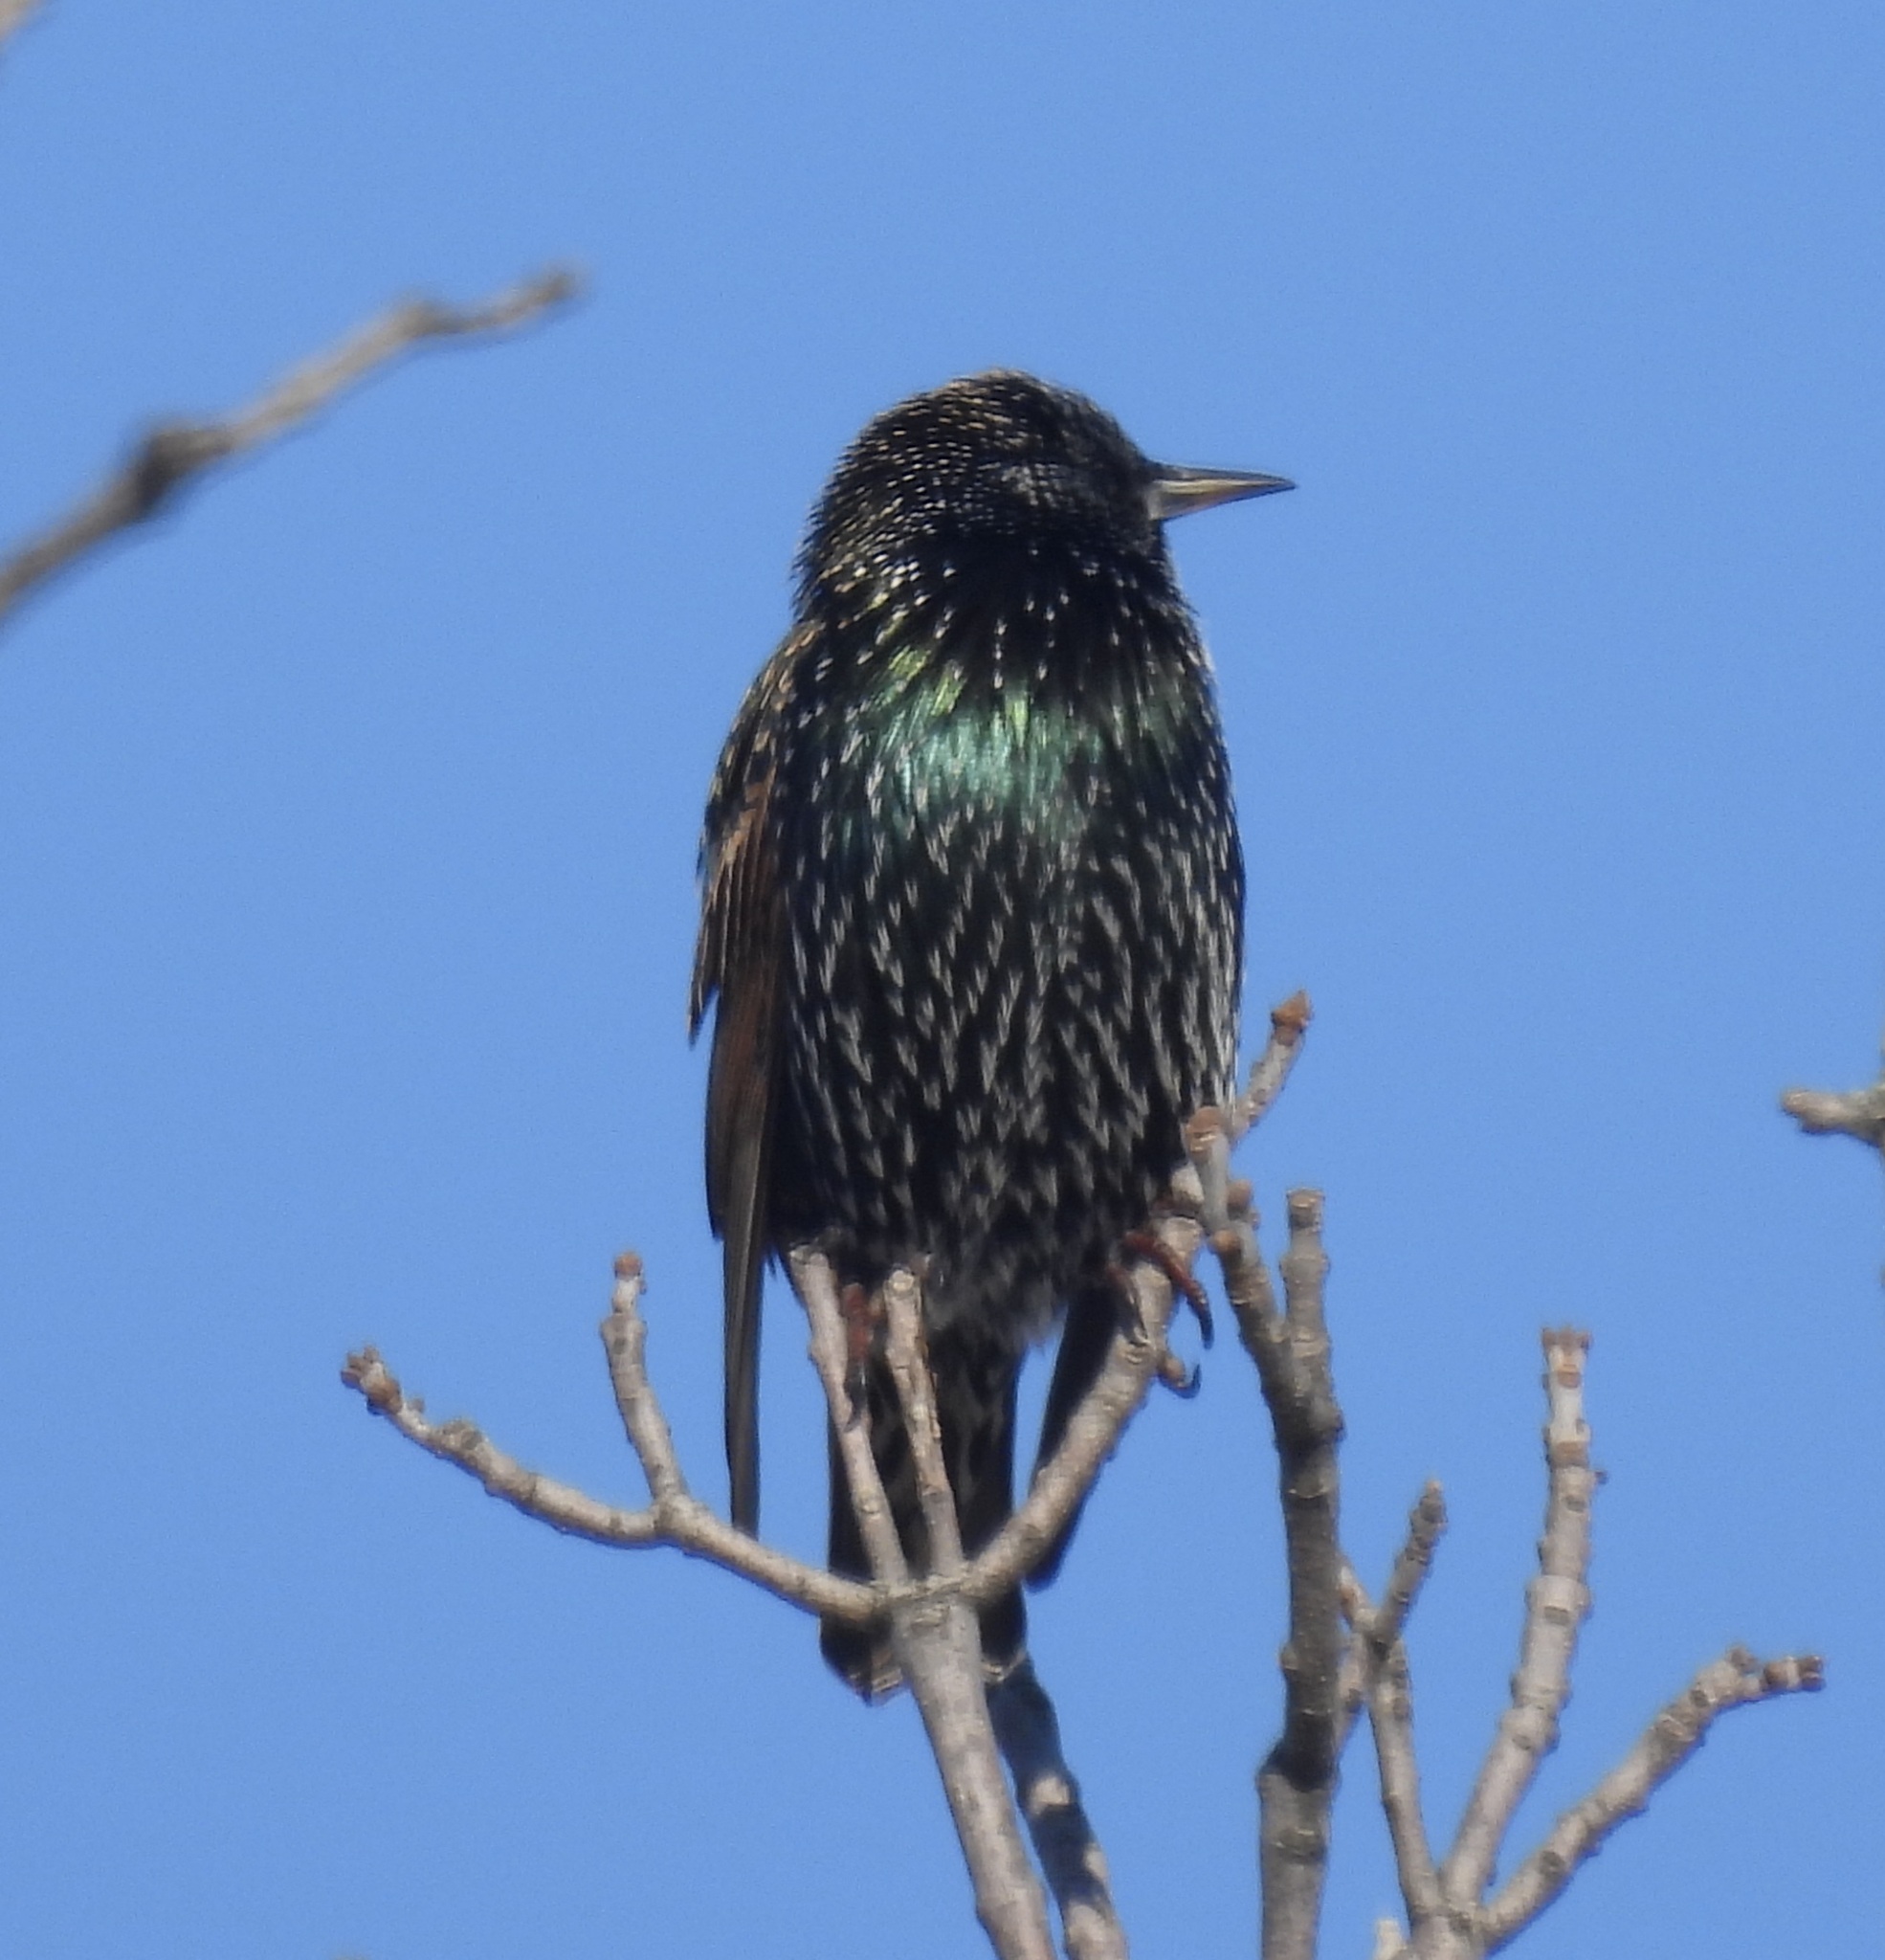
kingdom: Animalia
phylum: Chordata
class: Aves
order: Passeriformes
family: Sturnidae
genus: Sturnus
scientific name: Sturnus vulgaris
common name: Common starling
